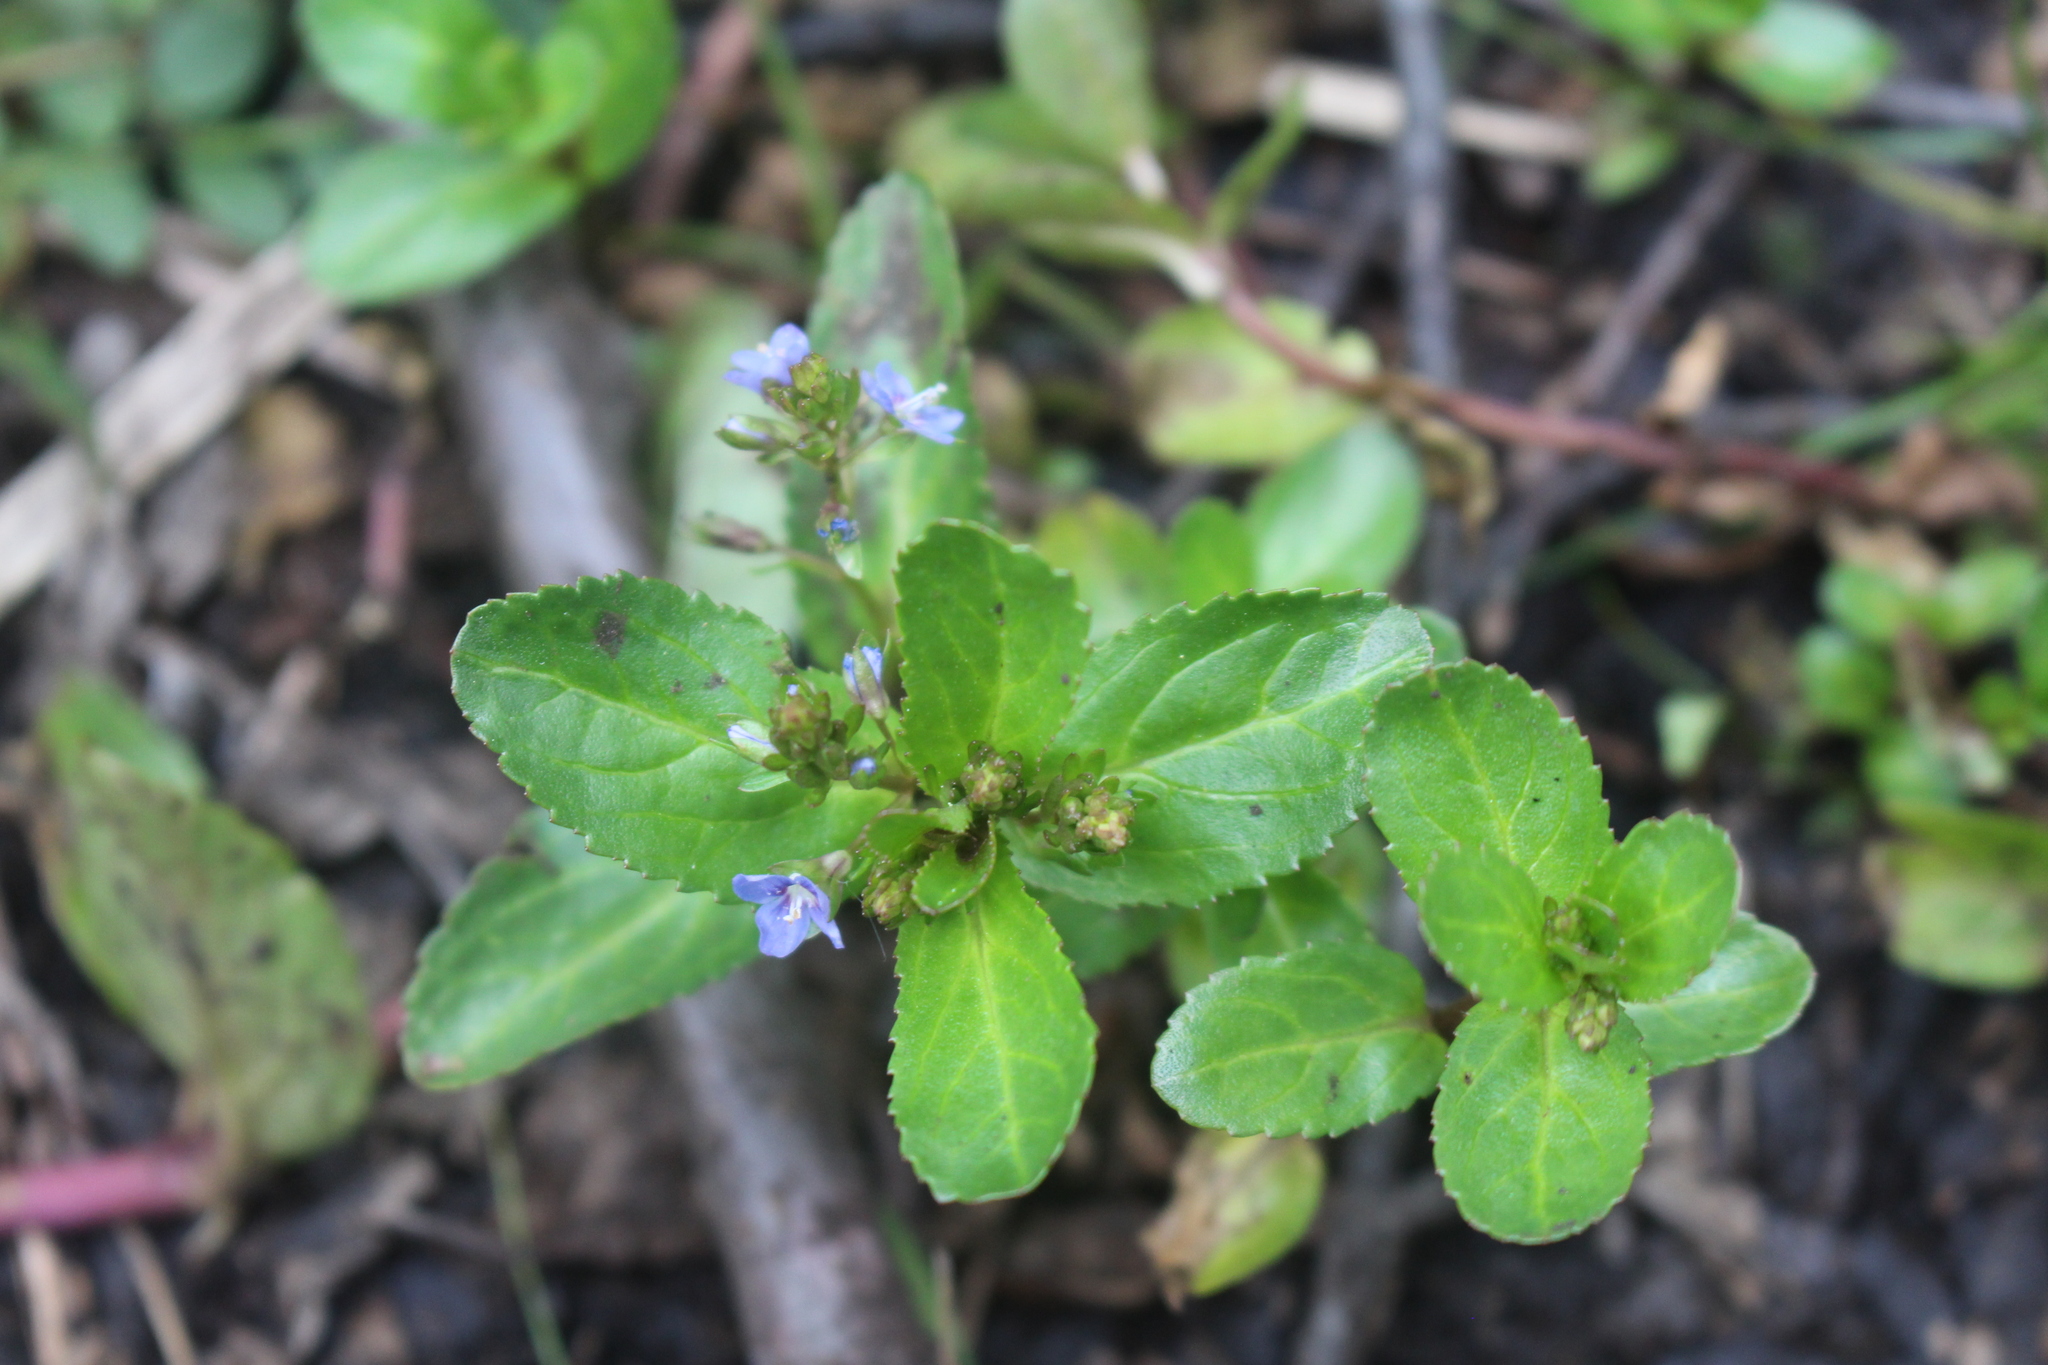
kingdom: Plantae
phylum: Tracheophyta
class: Magnoliopsida
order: Lamiales
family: Plantaginaceae
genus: Veronica
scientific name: Veronica beccabunga
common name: Brooklime
